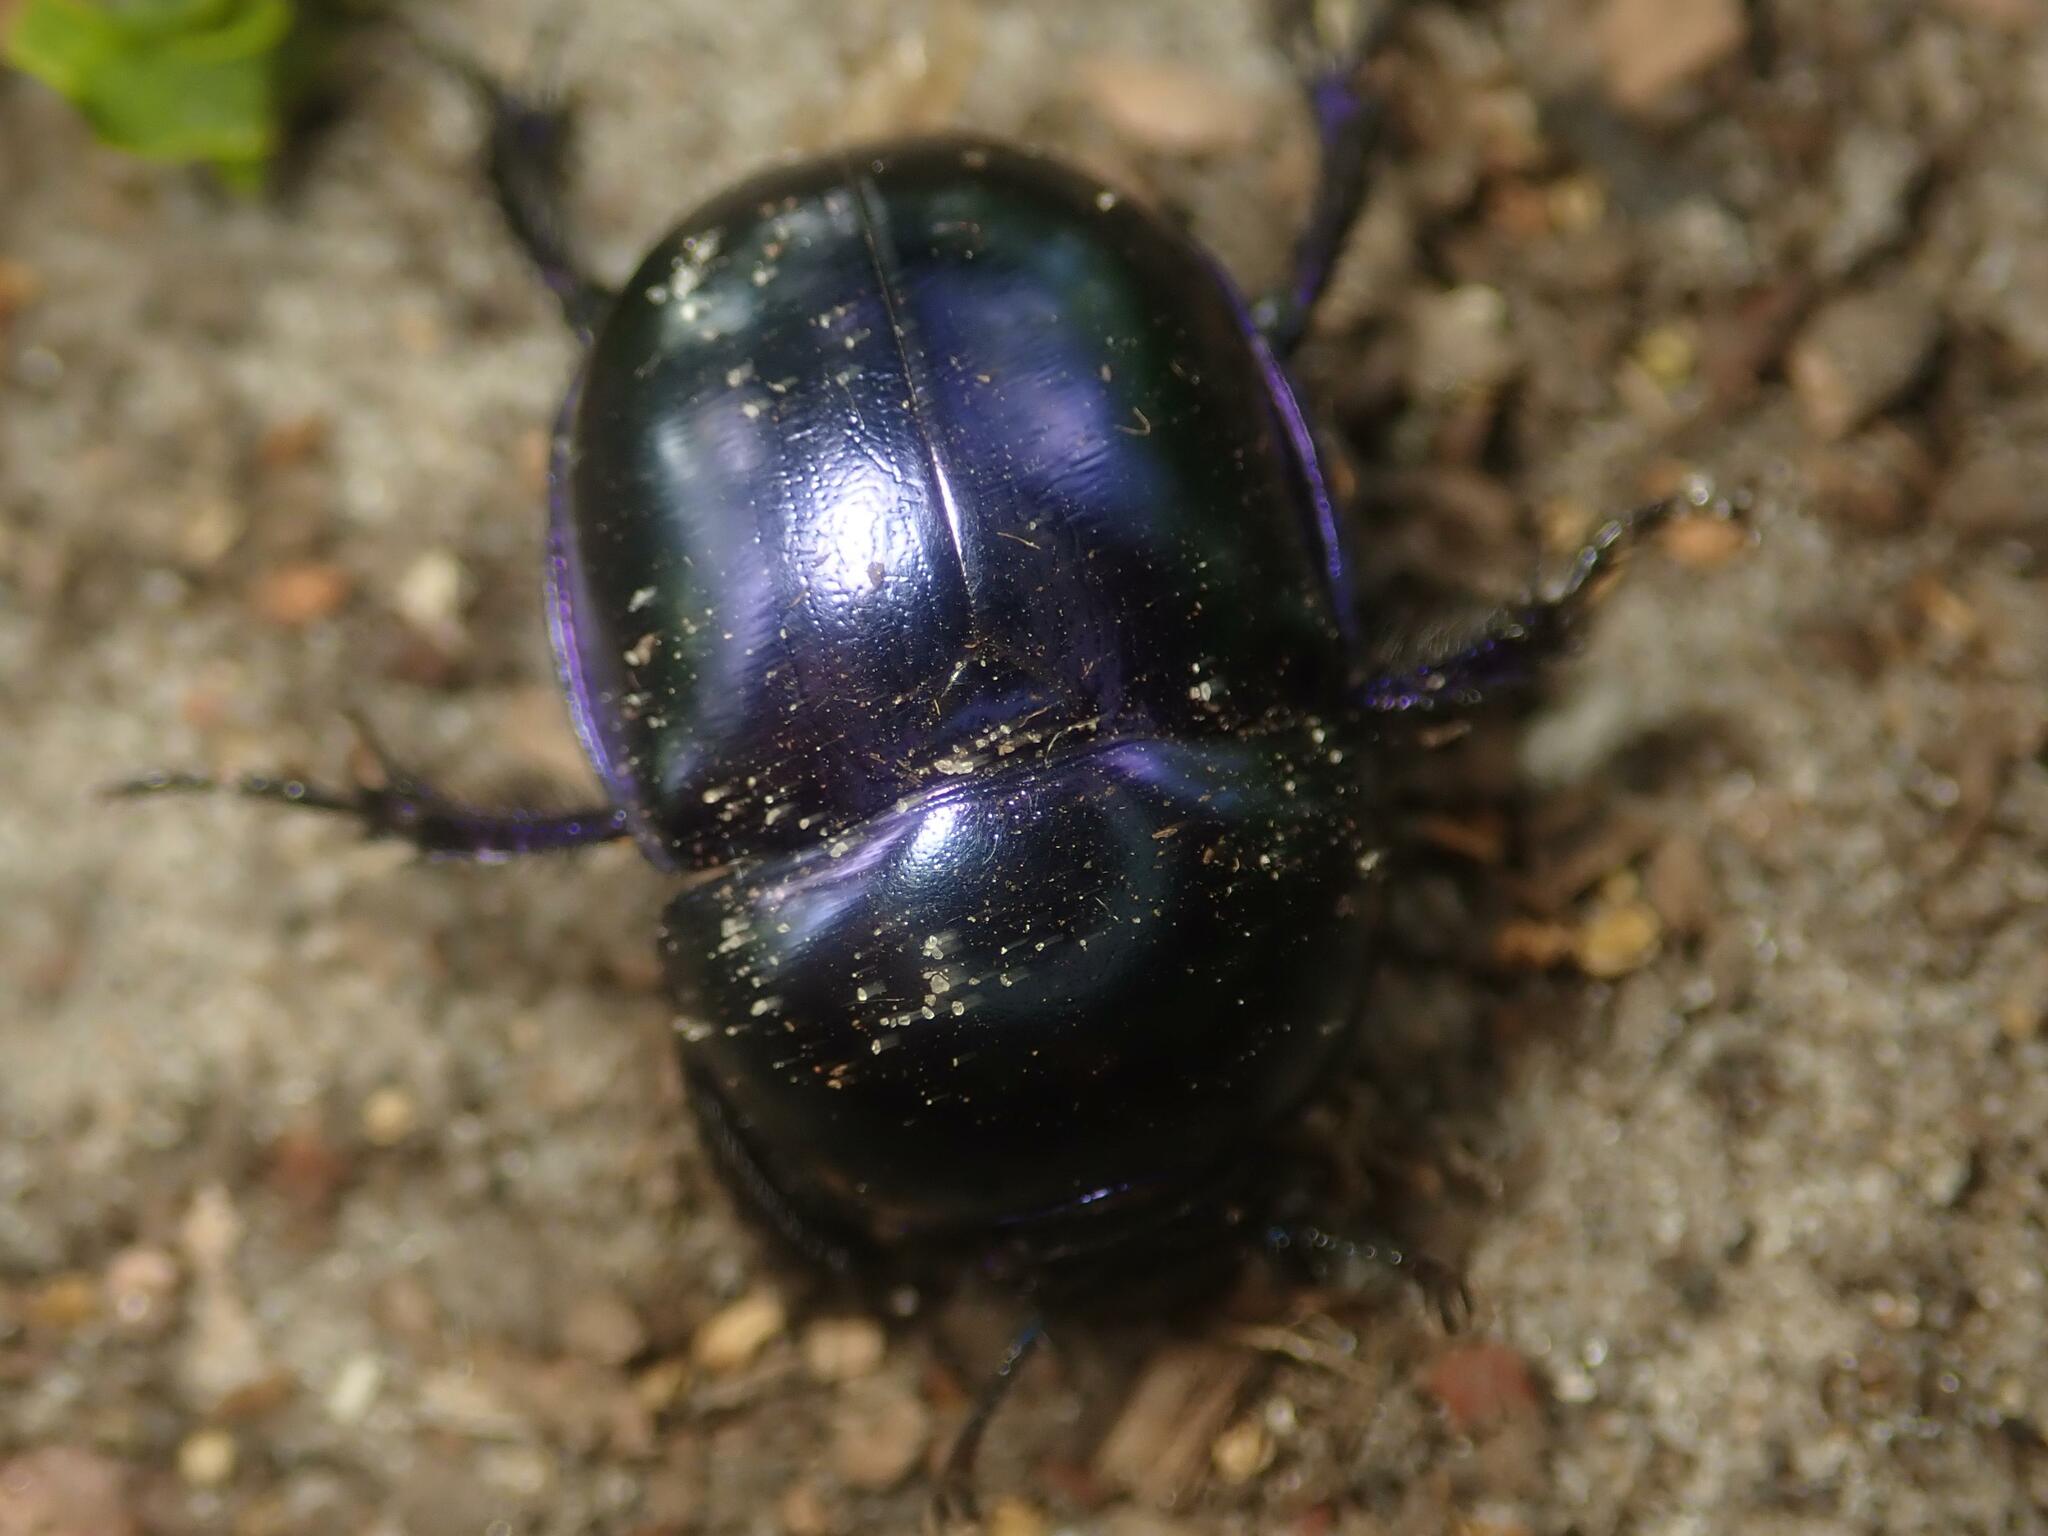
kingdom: Animalia
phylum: Arthropoda
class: Insecta
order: Coleoptera
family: Geotrupidae
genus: Trypocopris
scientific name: Trypocopris vernalis
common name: Spring dumbledor
